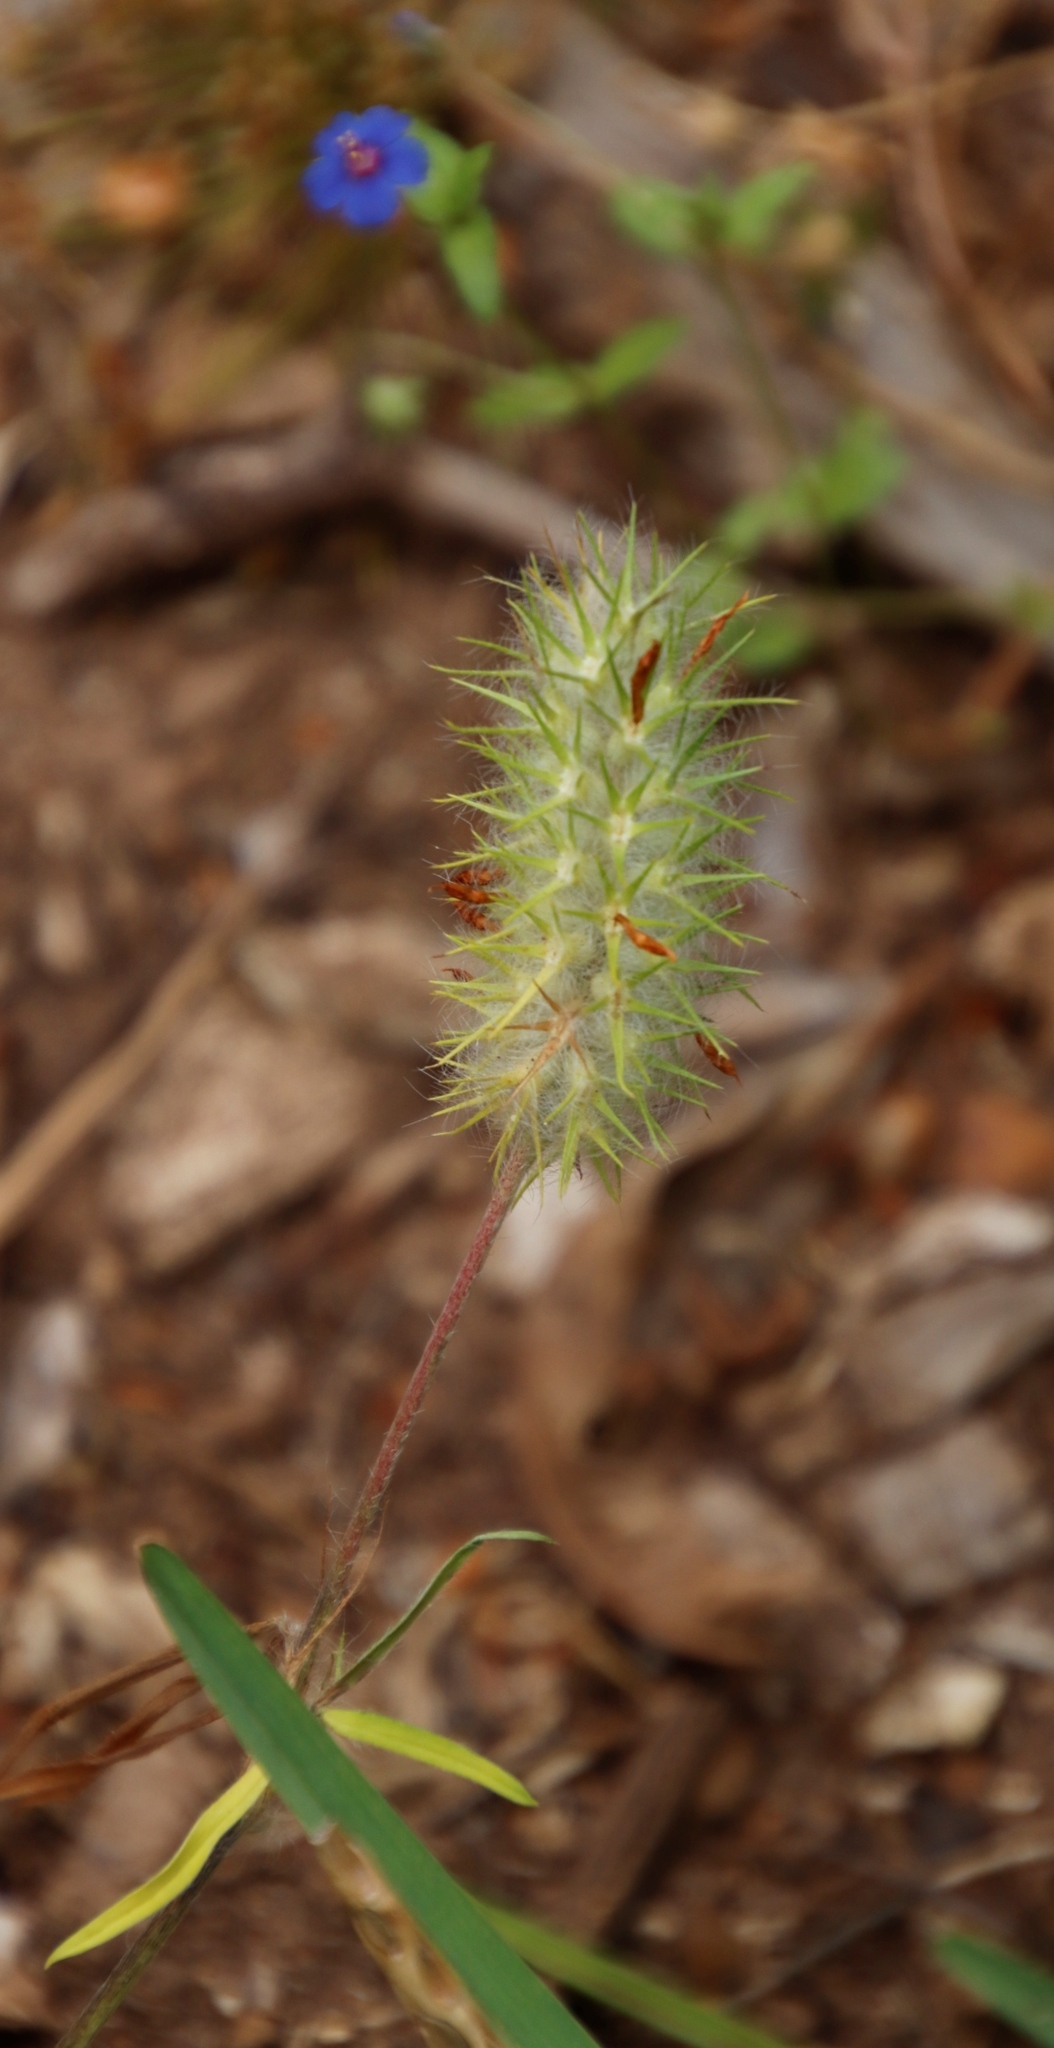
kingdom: Plantae
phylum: Tracheophyta
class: Magnoliopsida
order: Fabales
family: Fabaceae
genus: Trifolium
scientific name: Trifolium angustifolium
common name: Narrow clover
